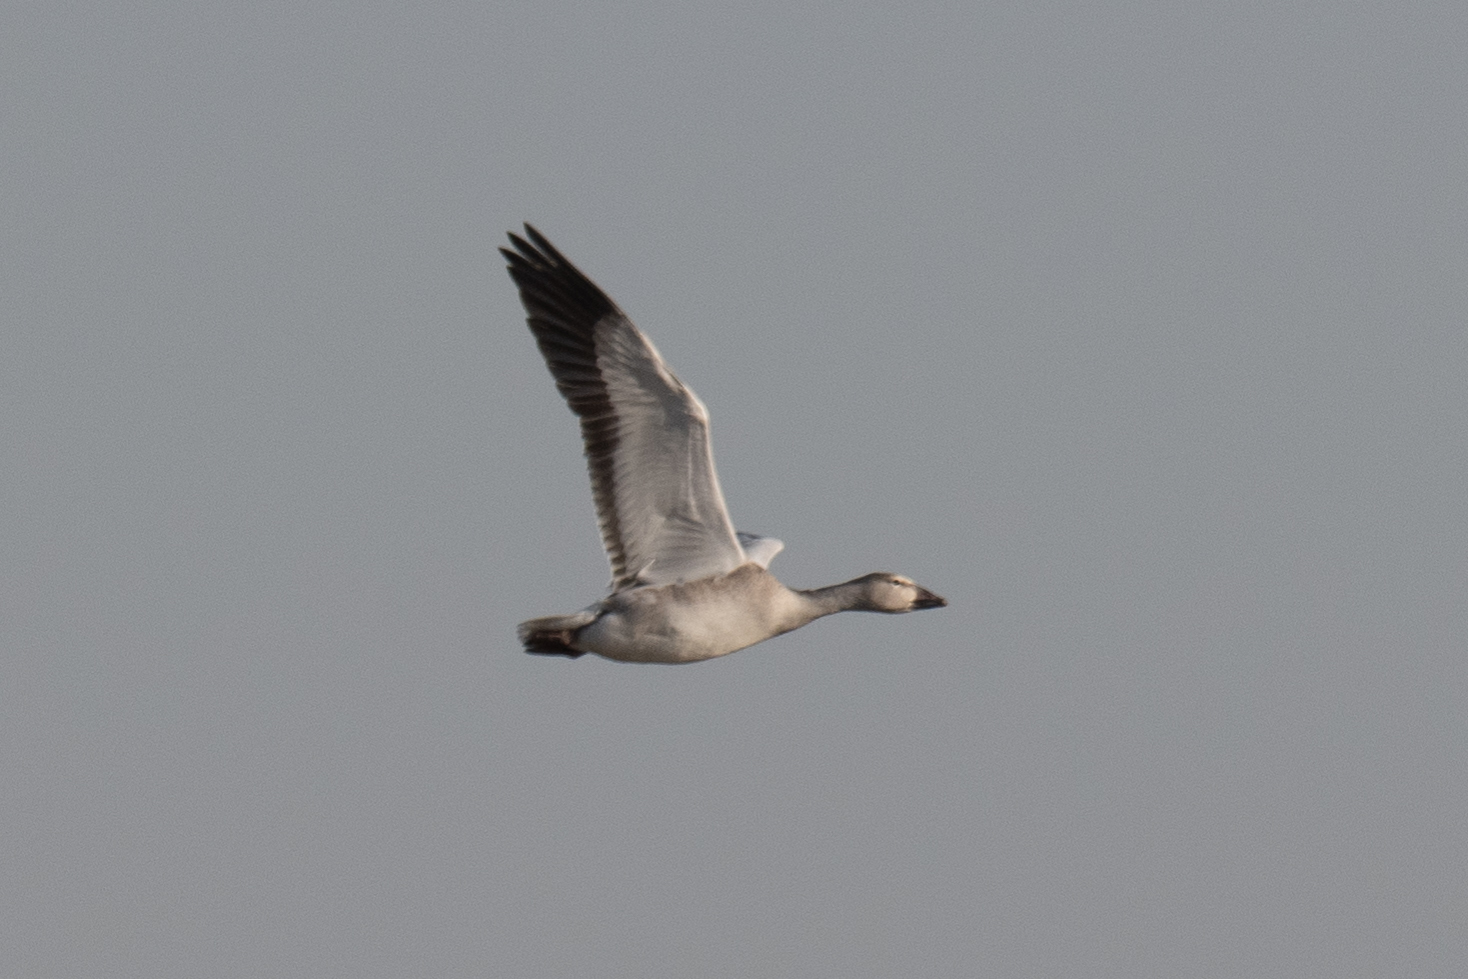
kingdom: Animalia
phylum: Chordata
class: Aves
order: Anseriformes
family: Anatidae
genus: Anser
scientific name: Anser caerulescens
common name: Snow goose
